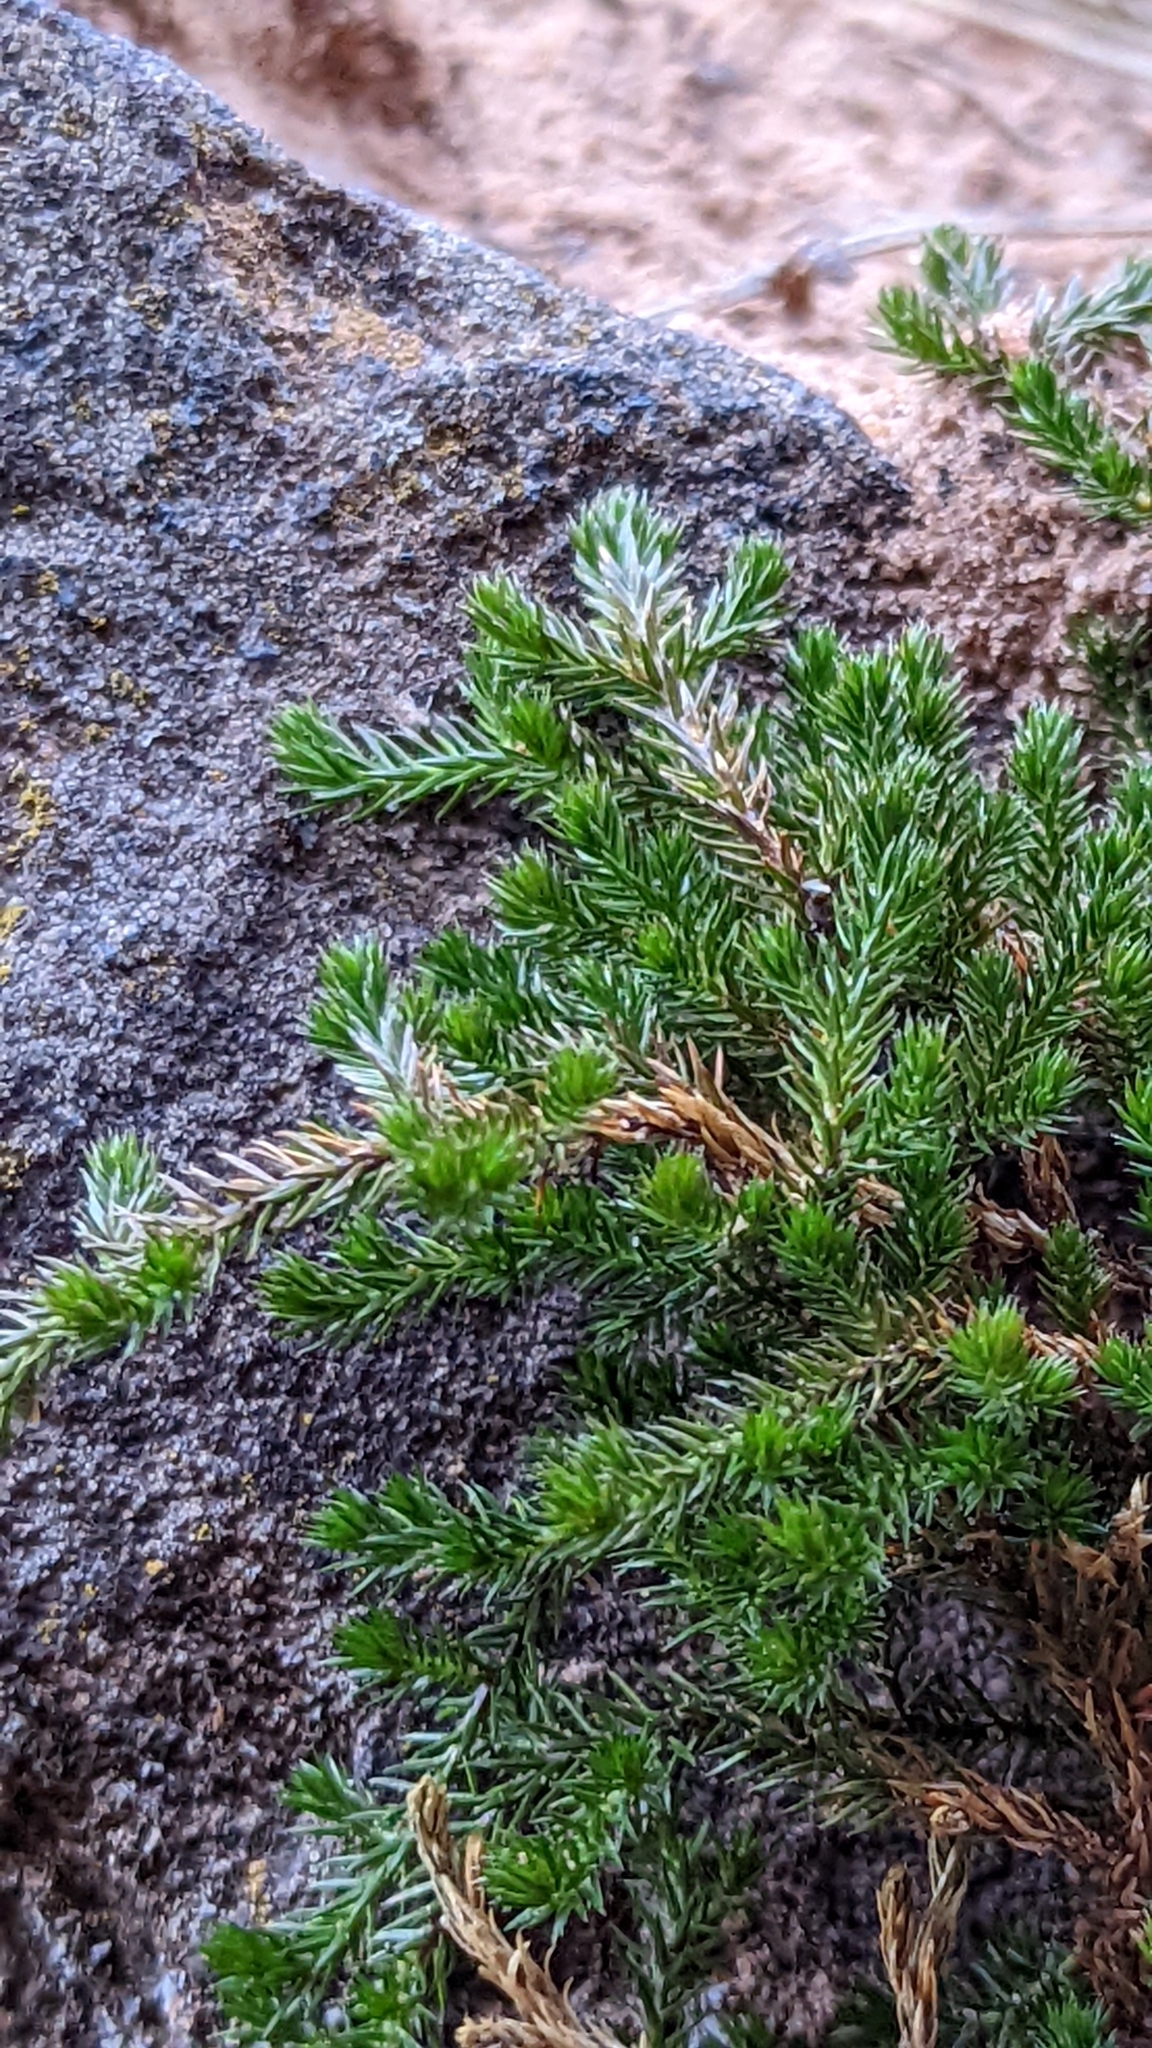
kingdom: Plantae
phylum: Tracheophyta
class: Lycopodiopsida
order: Selaginellales
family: Selaginellaceae
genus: Selaginella
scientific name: Selaginella underwoodii
